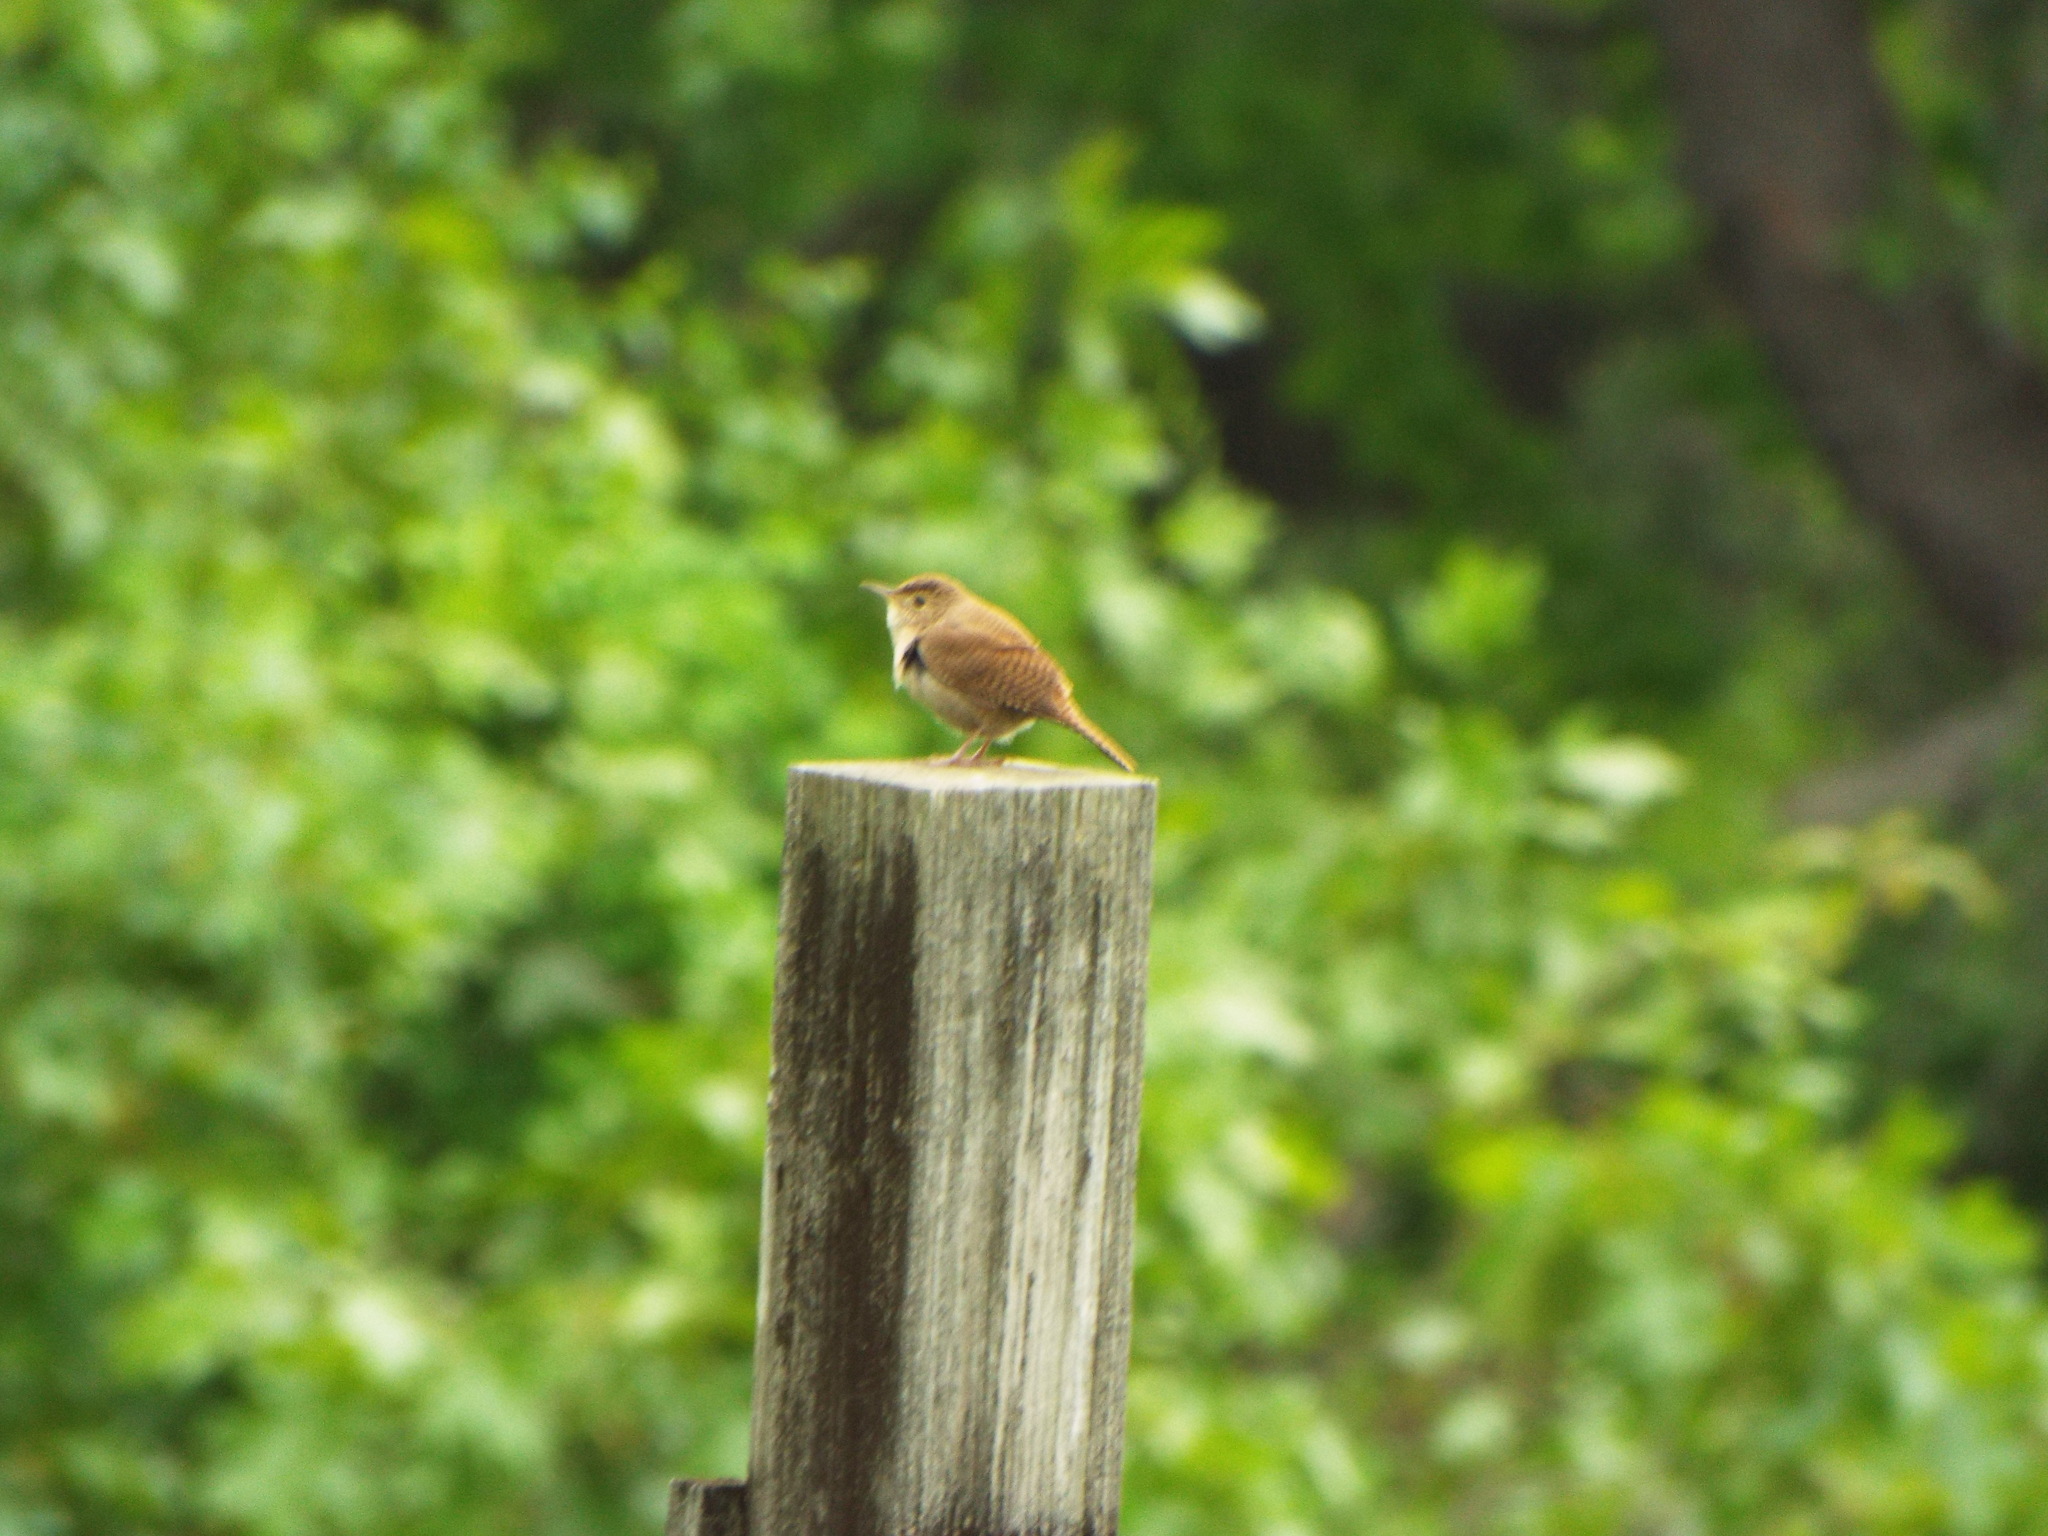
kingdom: Animalia
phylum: Chordata
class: Aves
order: Passeriformes
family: Troglodytidae
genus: Troglodytes
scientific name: Troglodytes aedon
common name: House wren
